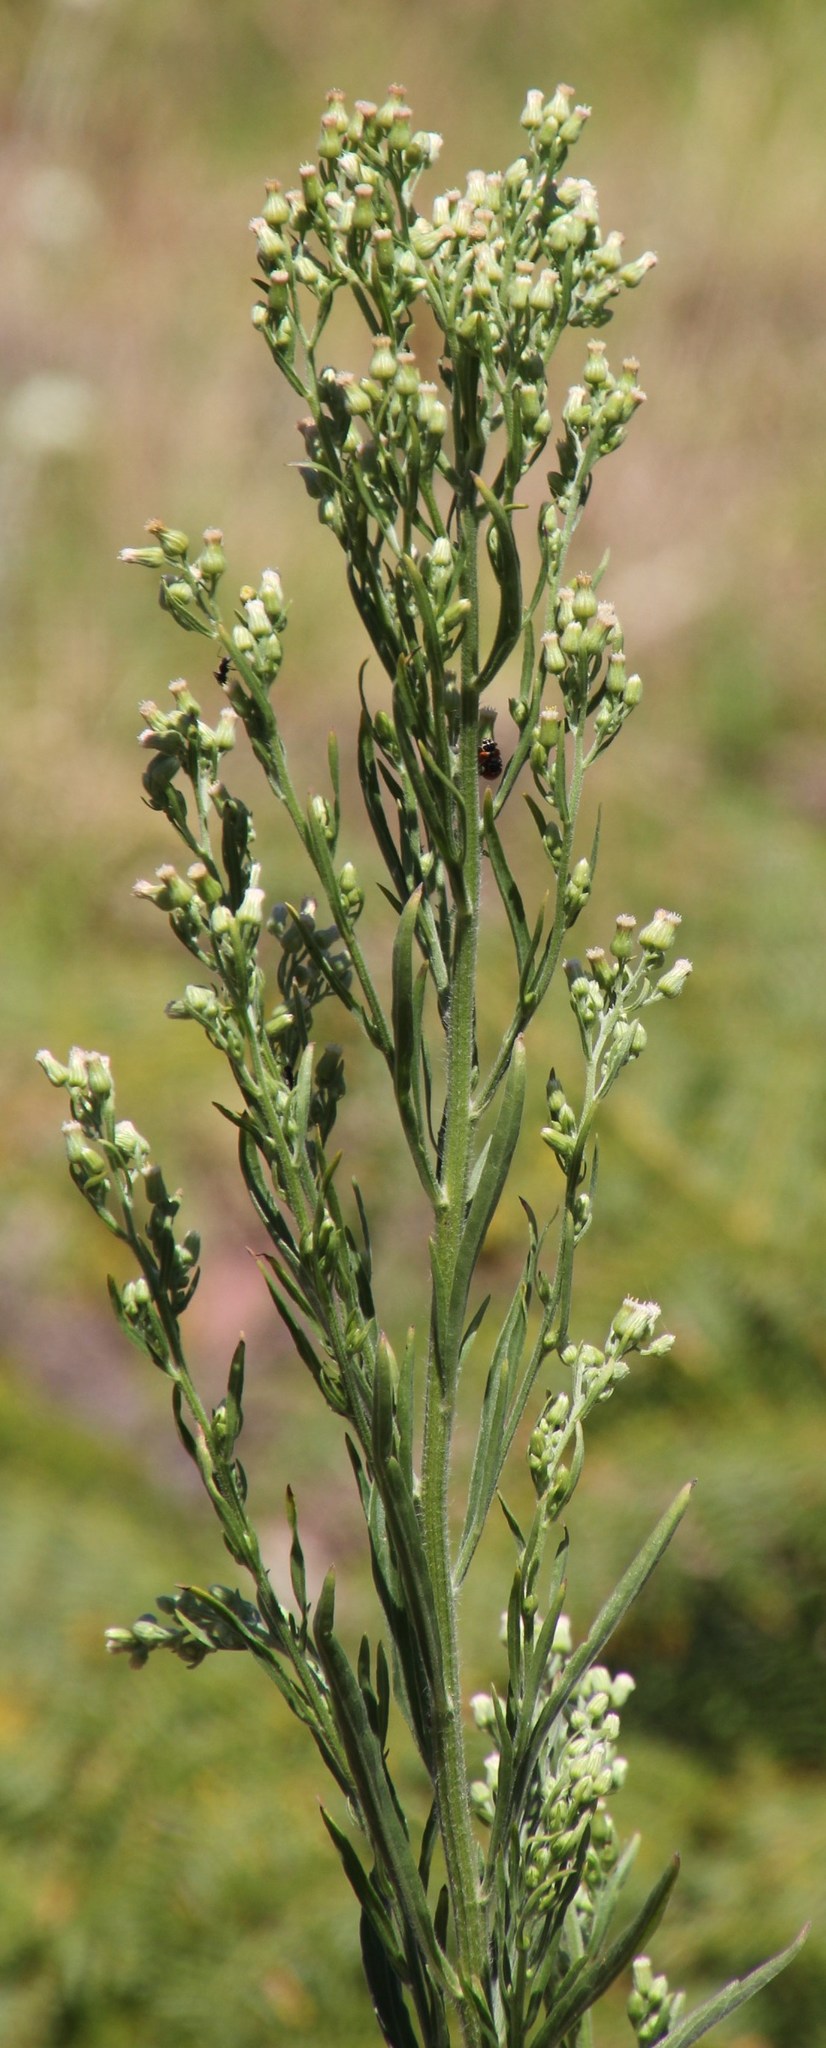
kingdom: Plantae
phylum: Tracheophyta
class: Magnoliopsida
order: Asterales
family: Asteraceae
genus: Erigeron
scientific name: Erigeron sumatrensis
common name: Daisy
